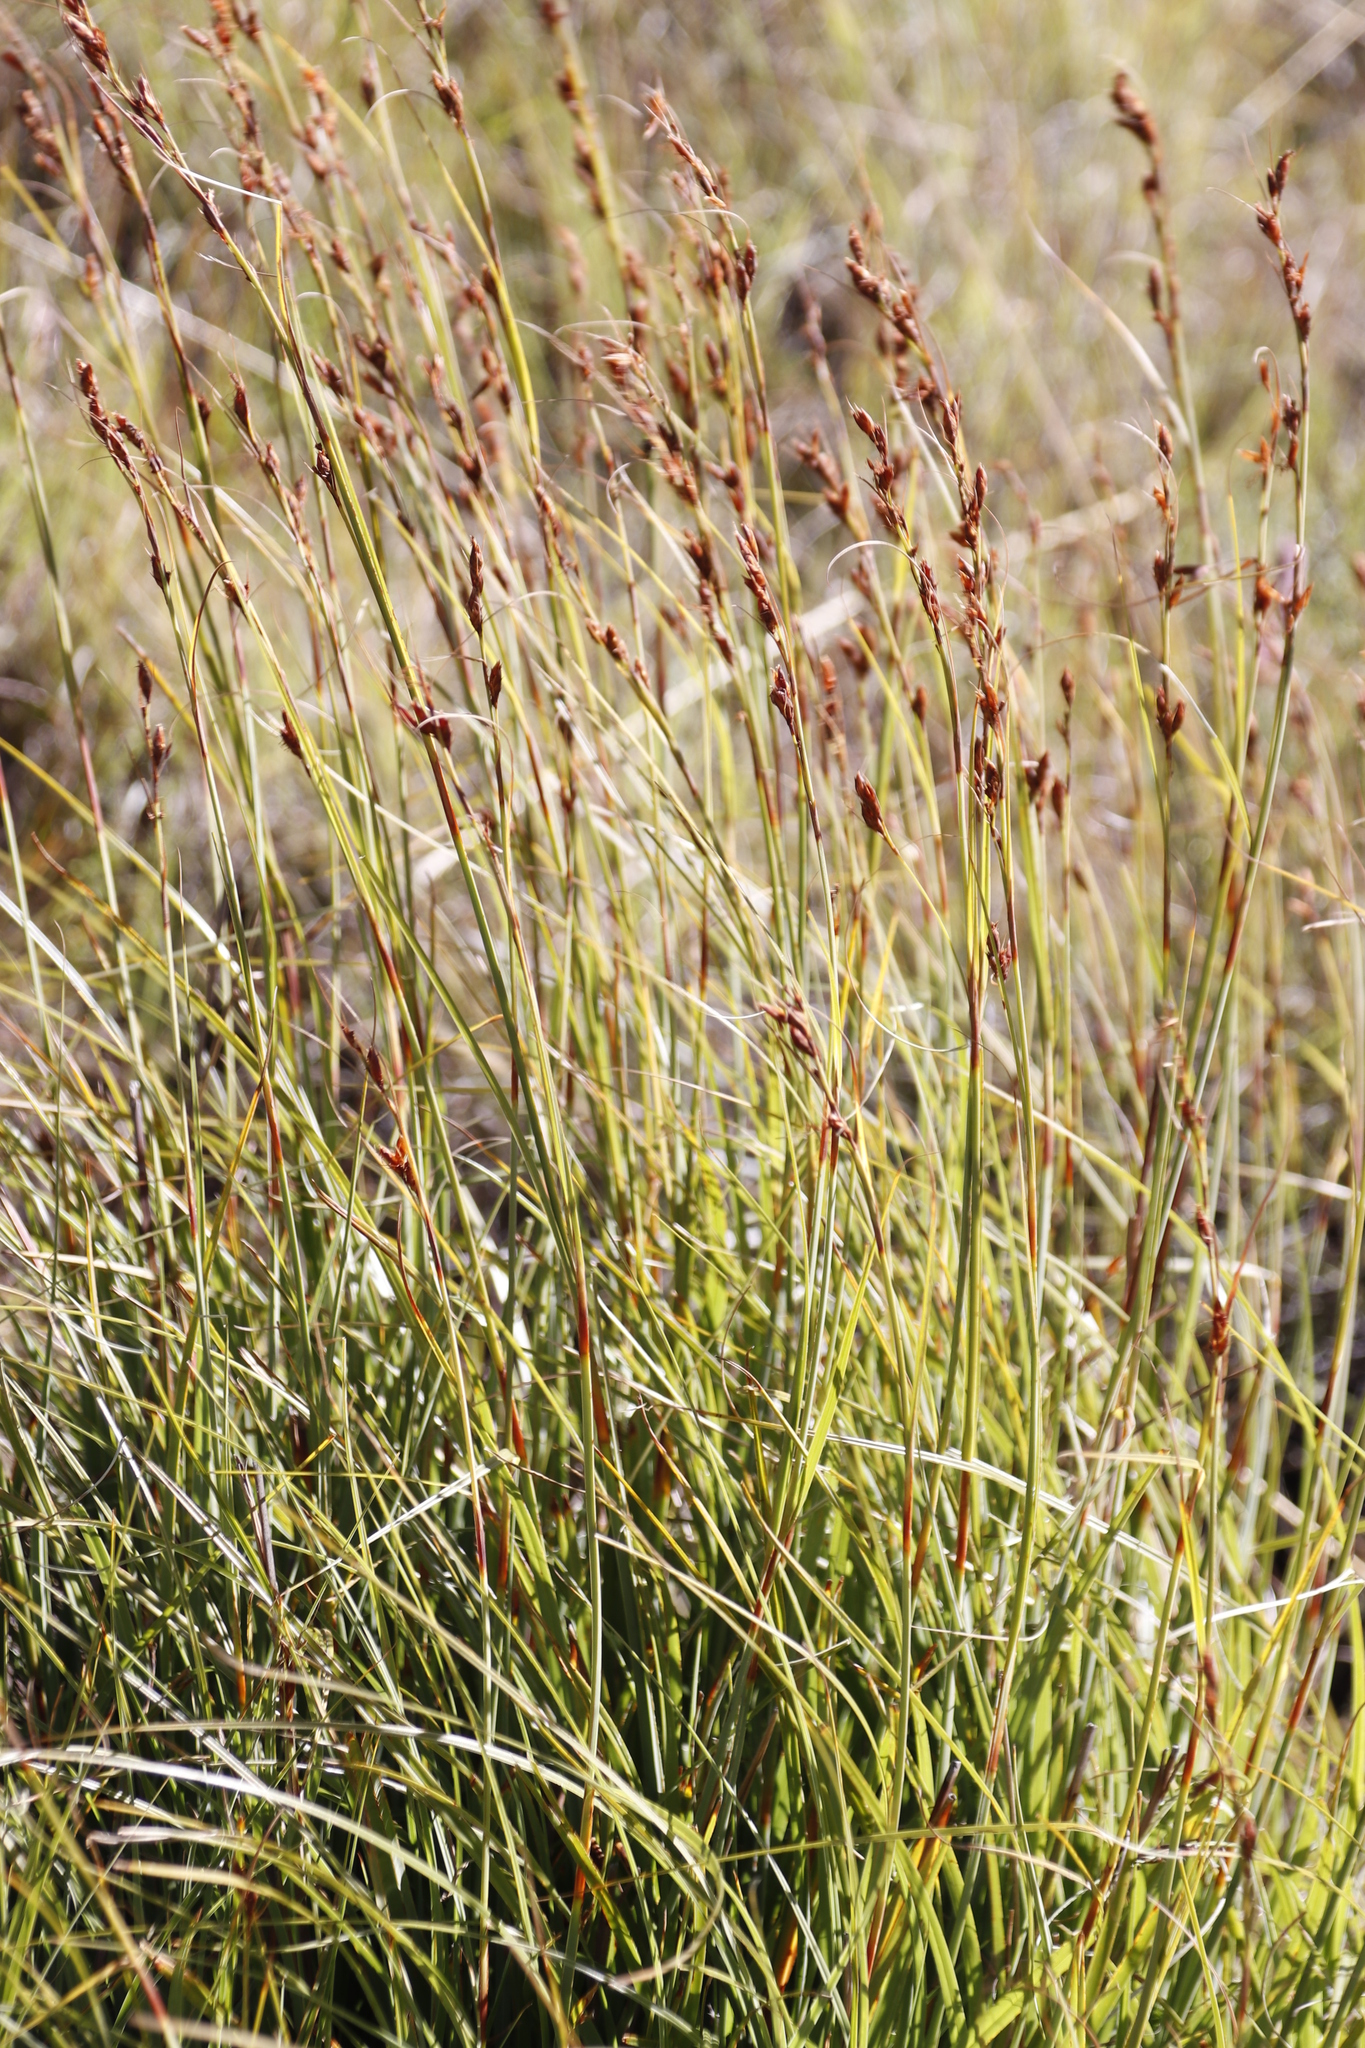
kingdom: Plantae
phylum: Tracheophyta
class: Liliopsida
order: Poales
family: Cyperaceae
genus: Tetraria
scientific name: Tetraria triangularis
